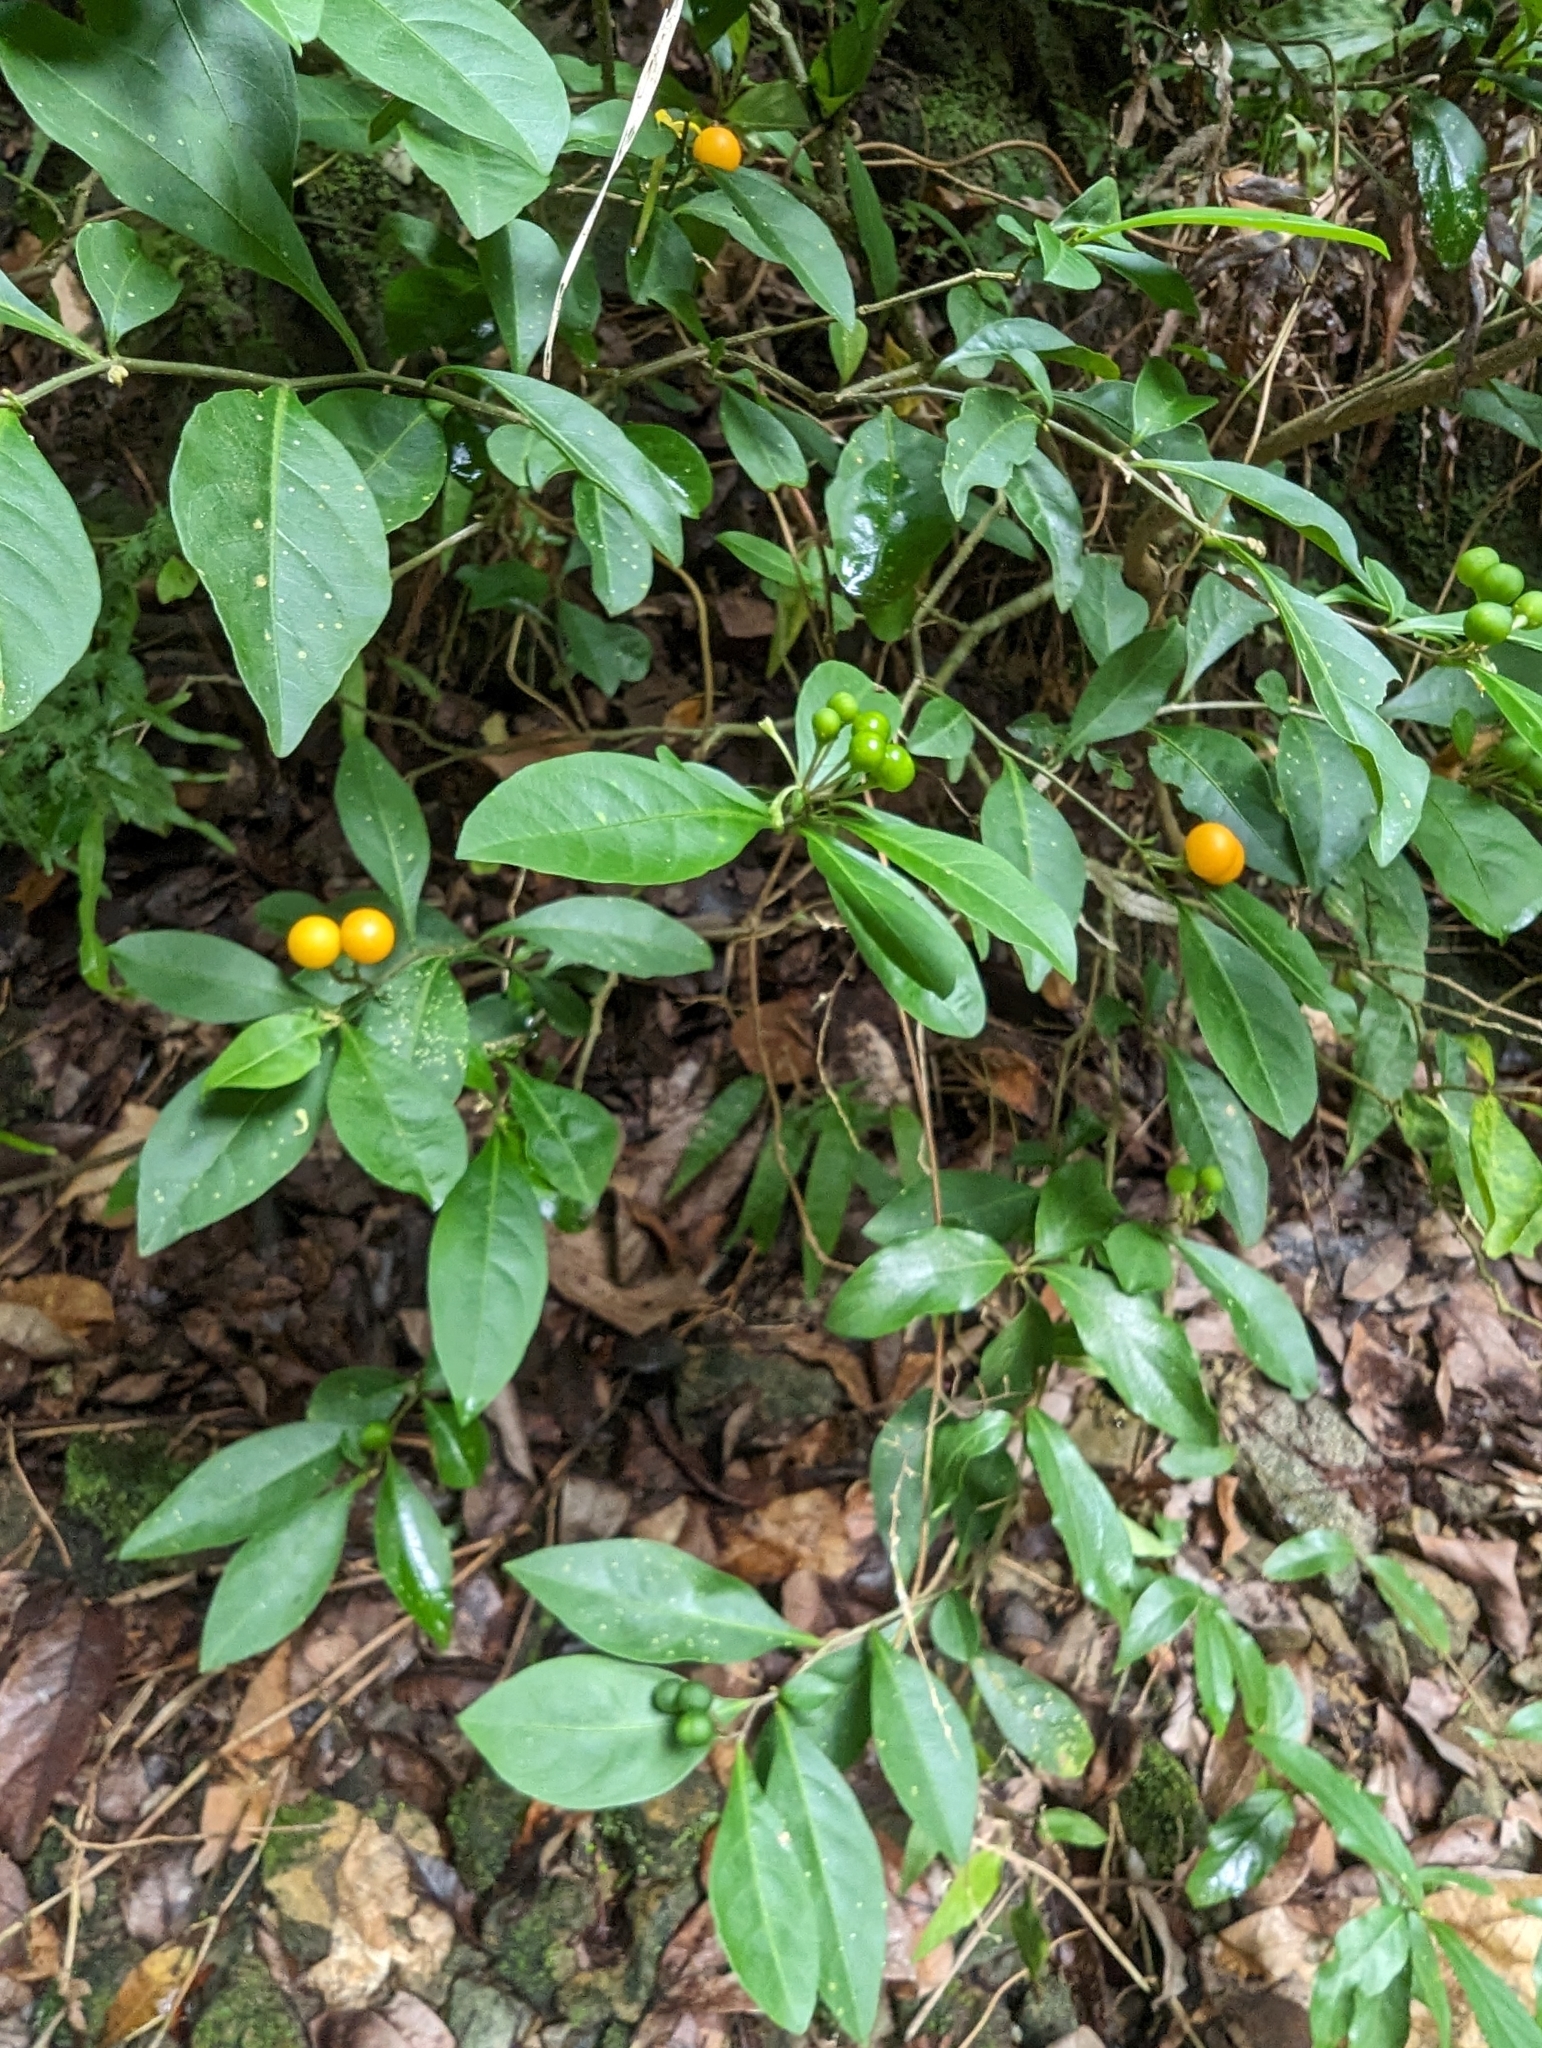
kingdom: Plantae
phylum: Tracheophyta
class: Magnoliopsida
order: Solanales
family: Solanaceae
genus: Solanum
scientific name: Solanum diphyllum
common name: Twoleaf nightshade
